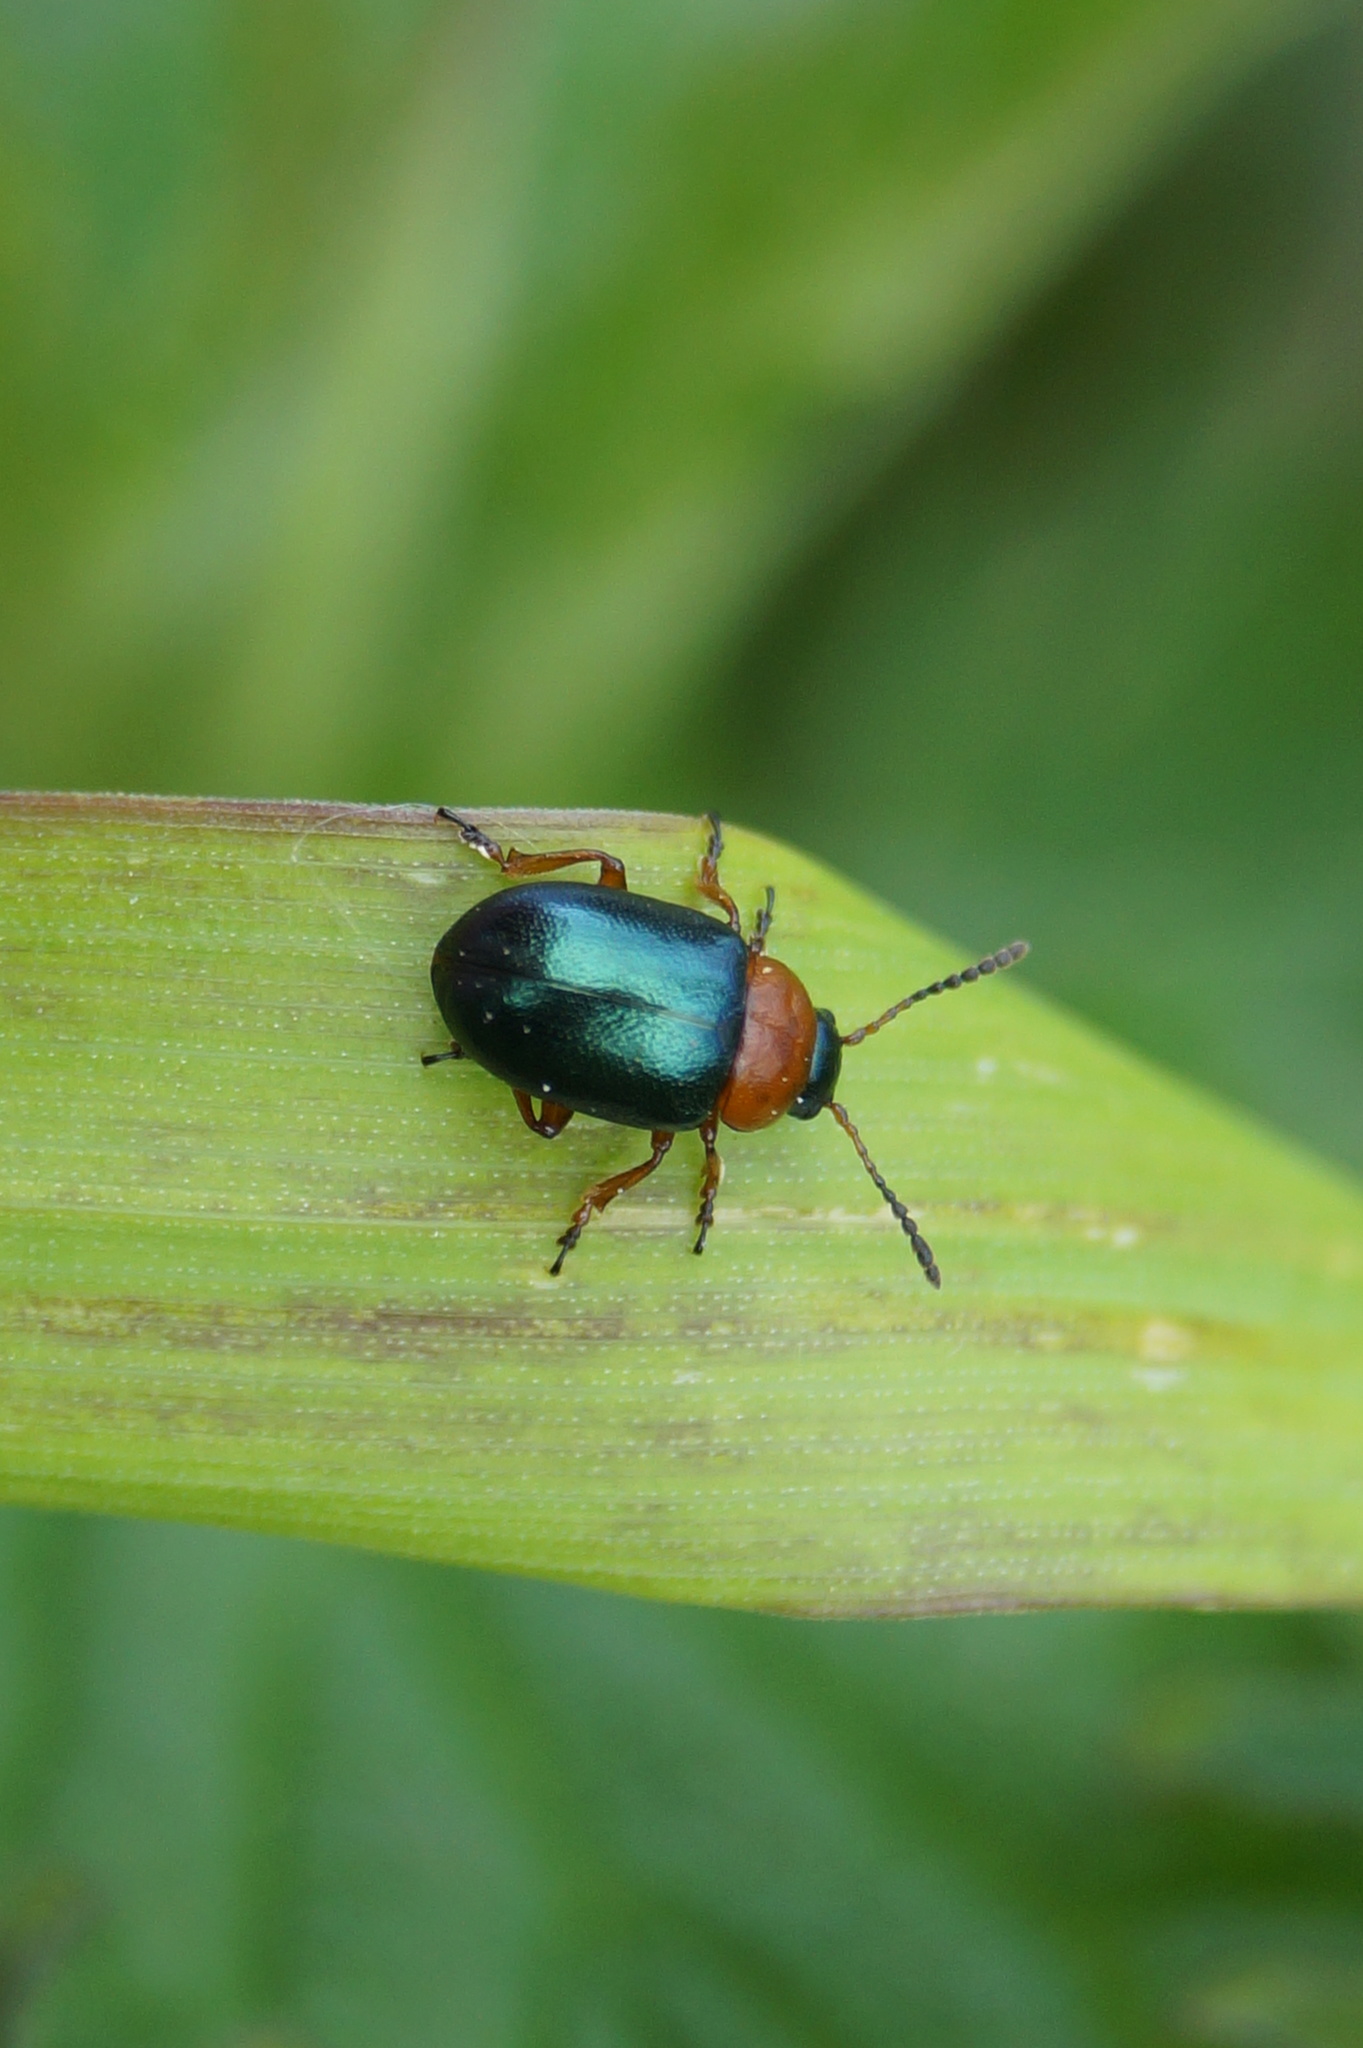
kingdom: Animalia
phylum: Arthropoda
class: Insecta
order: Coleoptera
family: Chrysomelidae
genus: Gastrophysa
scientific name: Gastrophysa polygoni
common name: Knotweed leaf beetle
